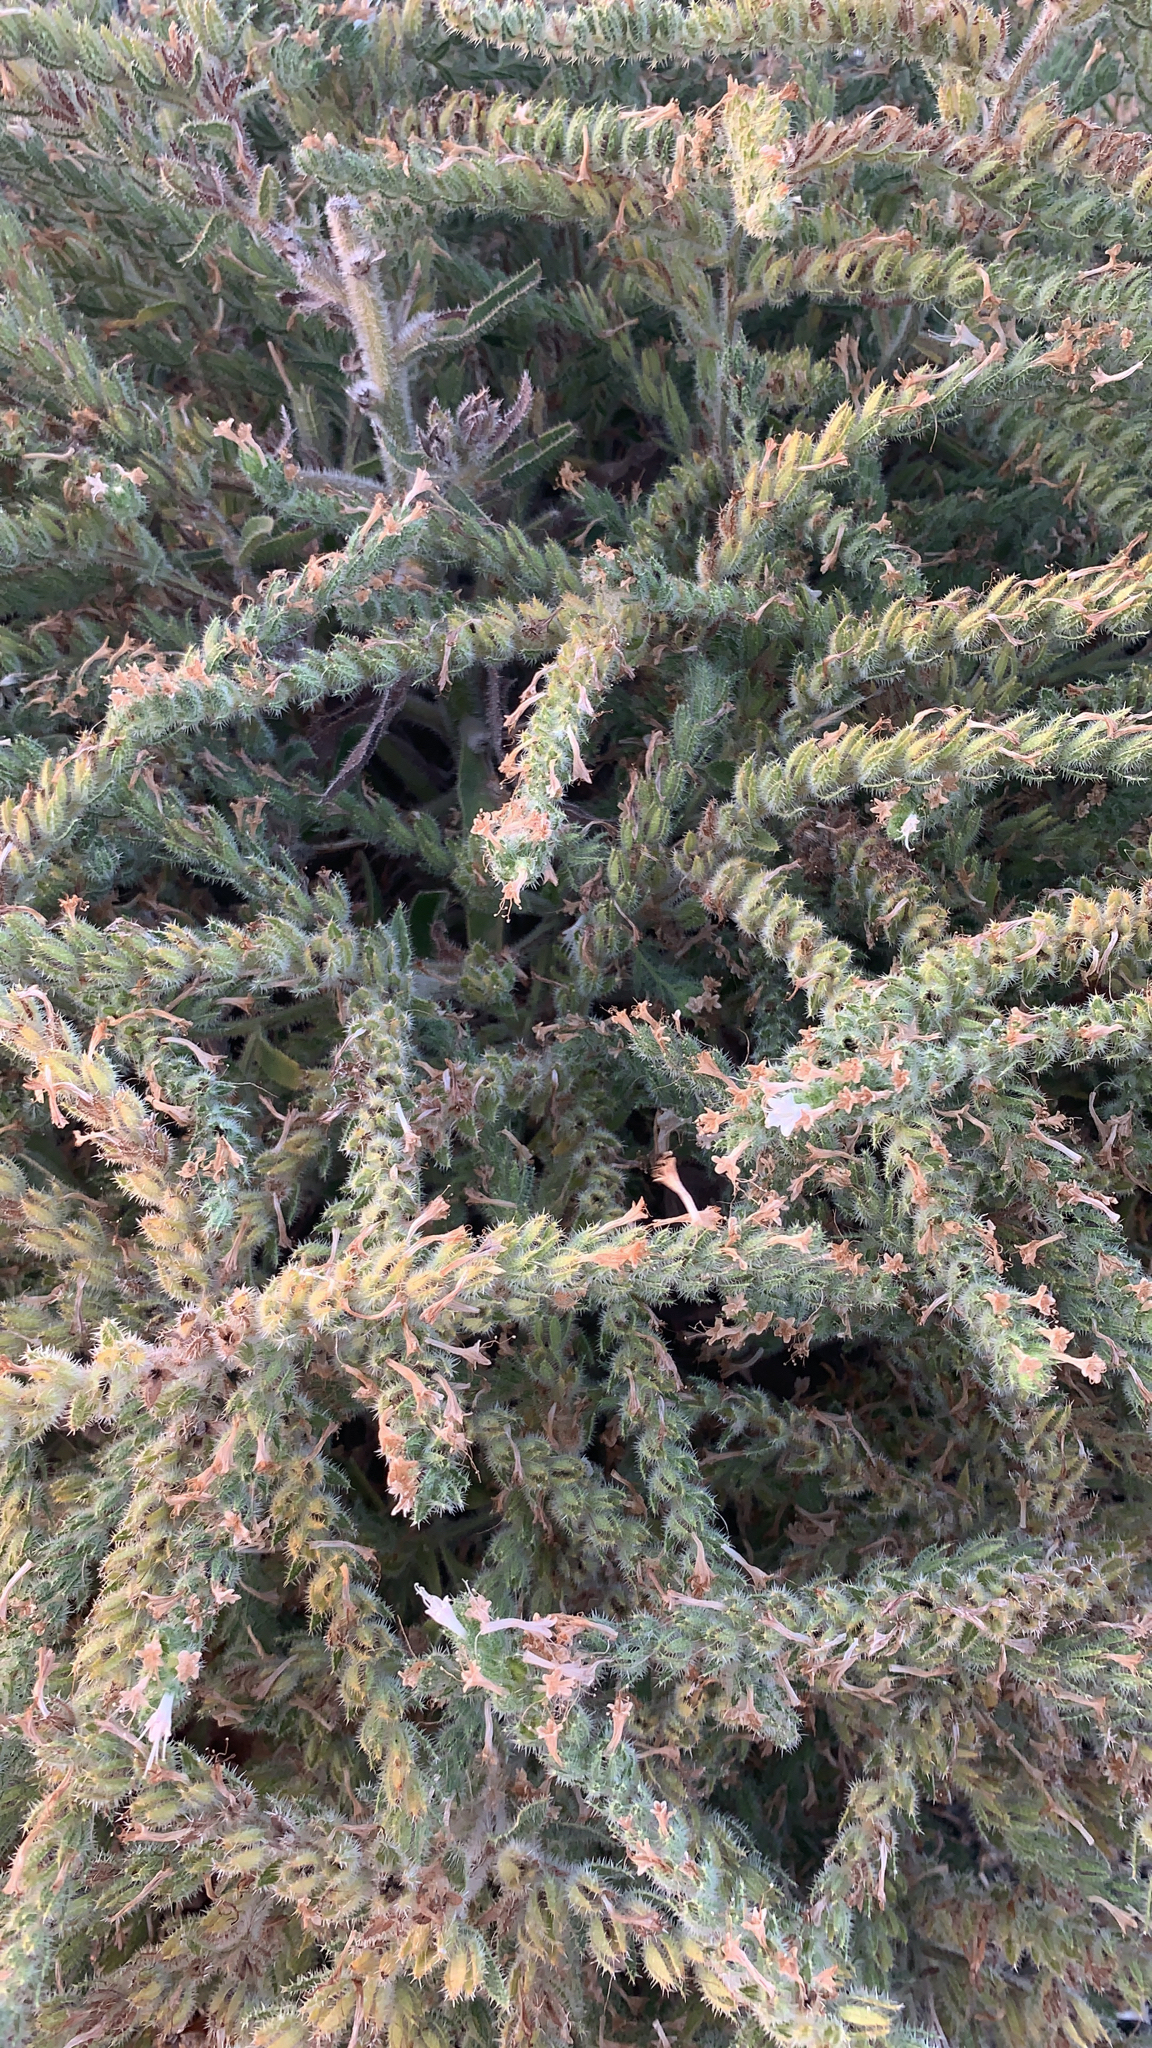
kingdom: Plantae
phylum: Tracheophyta
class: Magnoliopsida
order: Boraginales
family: Boraginaceae
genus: Echium
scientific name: Echium italicum
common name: Italian viper's bugloss
